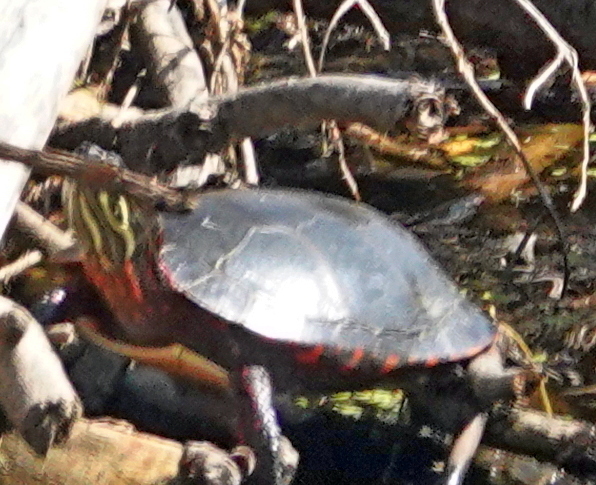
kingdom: Animalia
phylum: Chordata
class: Testudines
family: Emydidae
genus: Chrysemys
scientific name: Chrysemys picta
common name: Painted turtle
